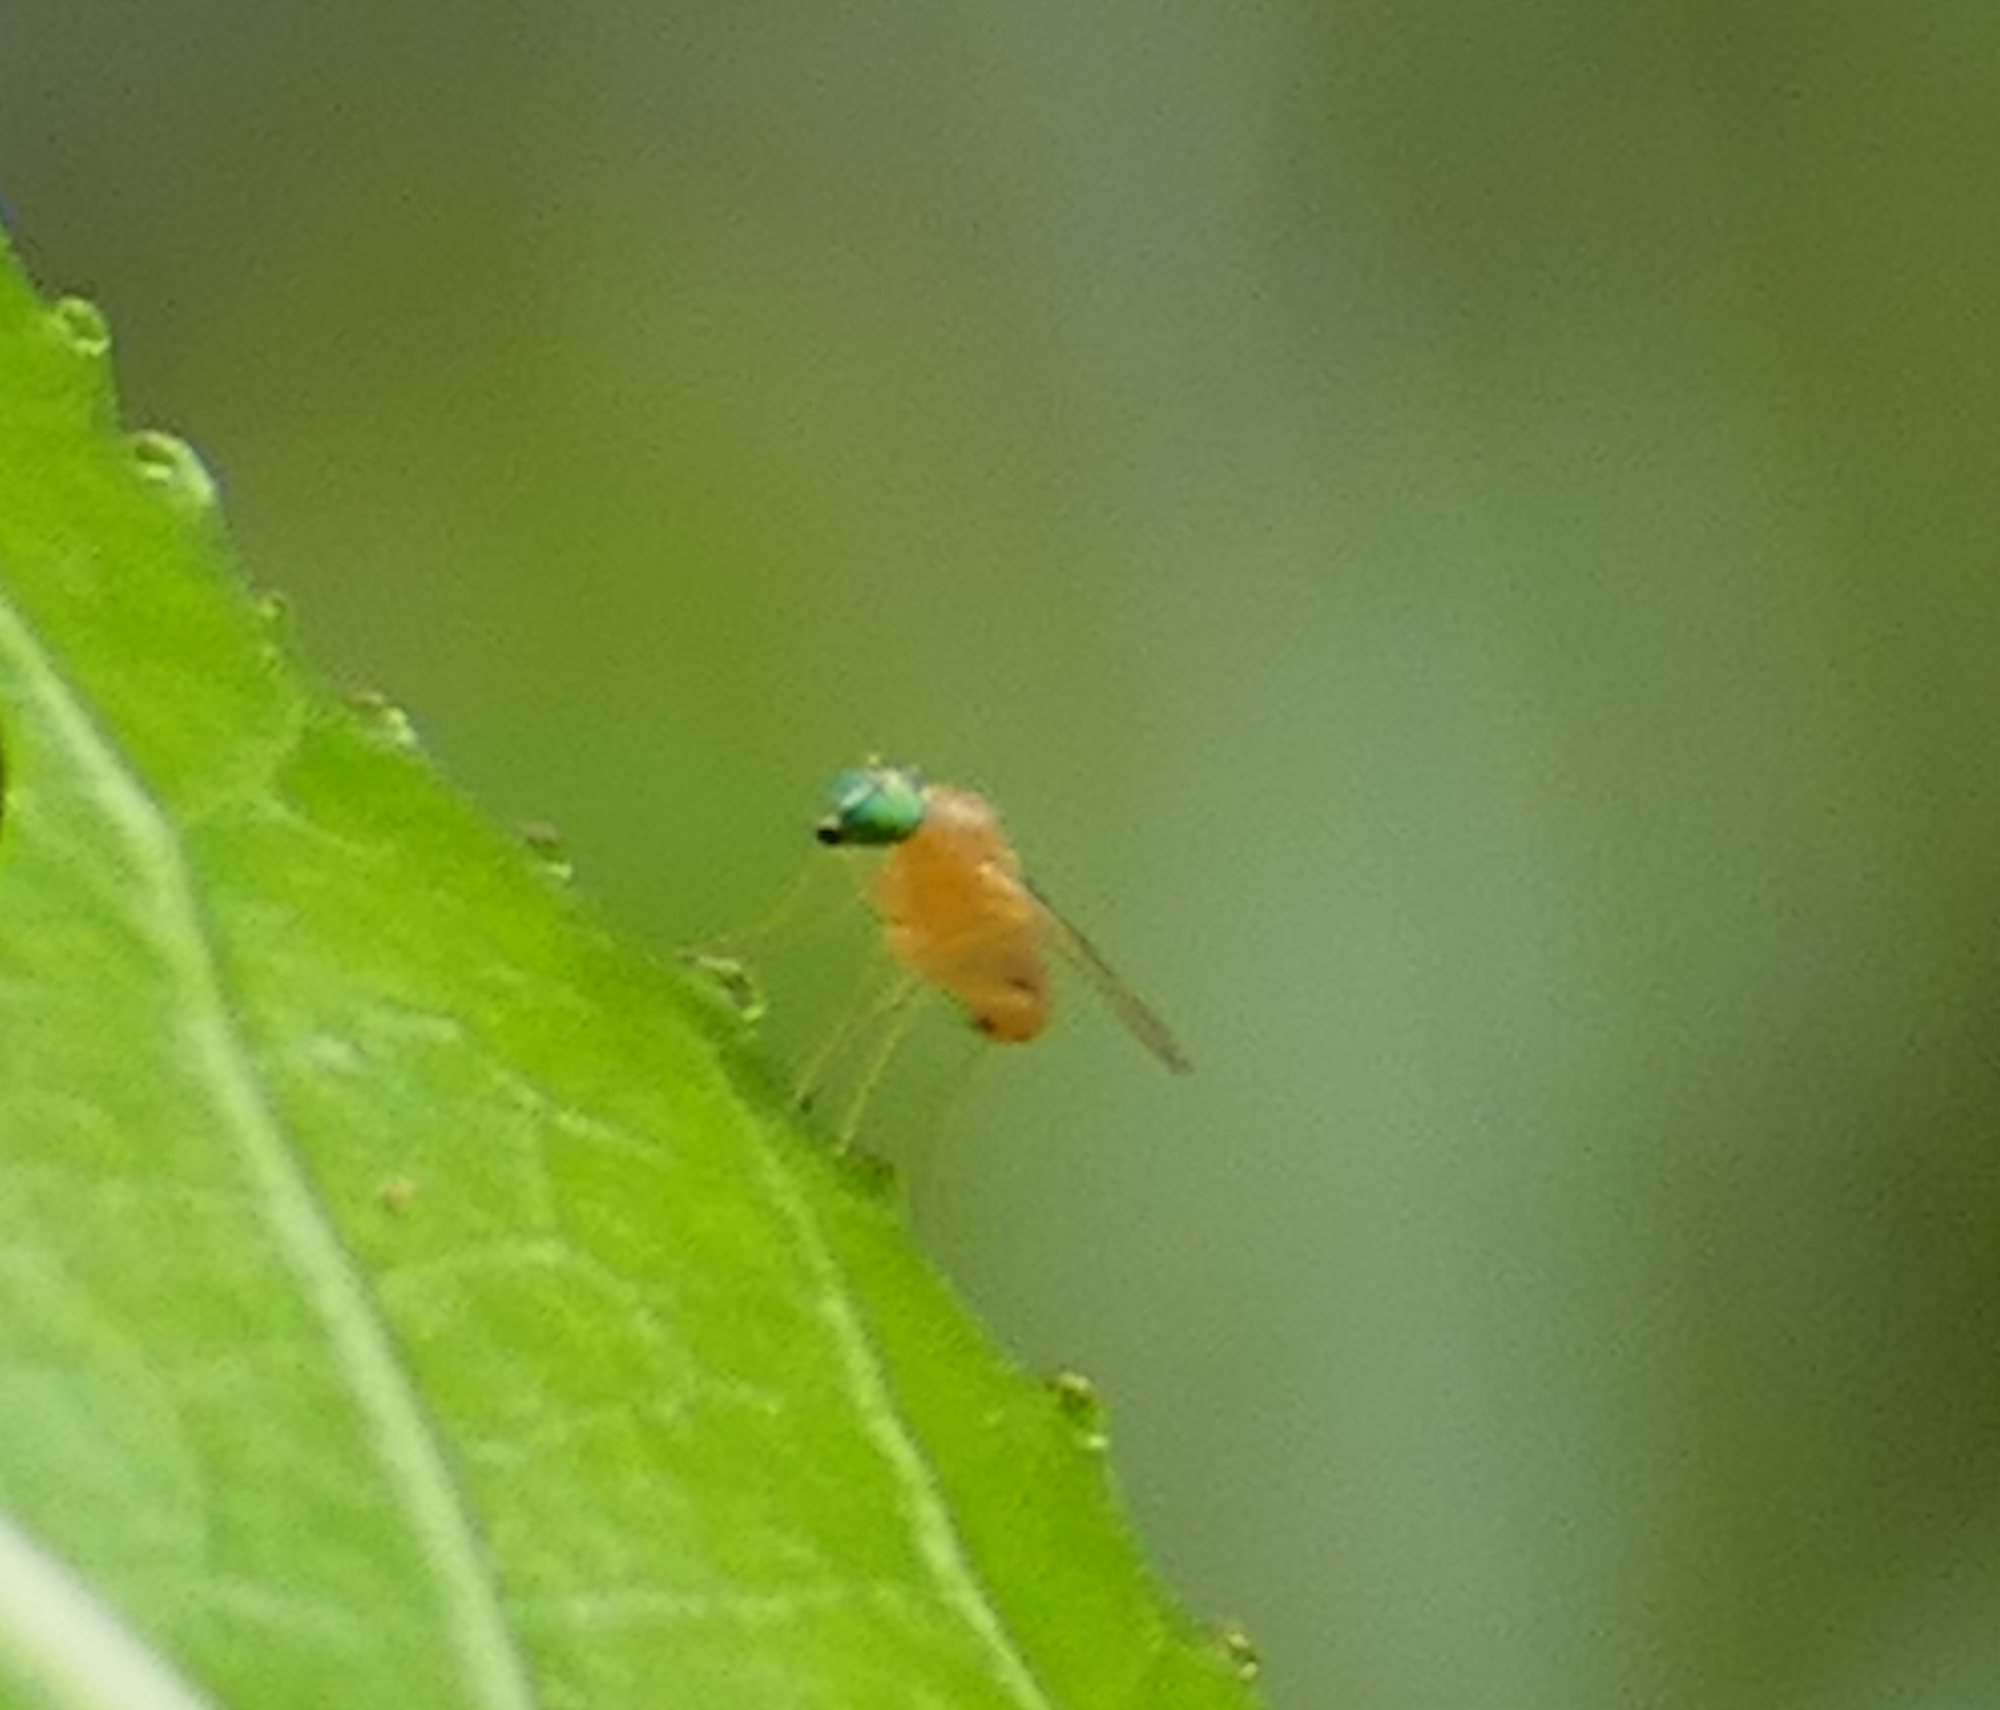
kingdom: Animalia
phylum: Arthropoda
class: Insecta
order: Diptera
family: Dolichopodidae
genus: Neurigona
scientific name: Neurigona
